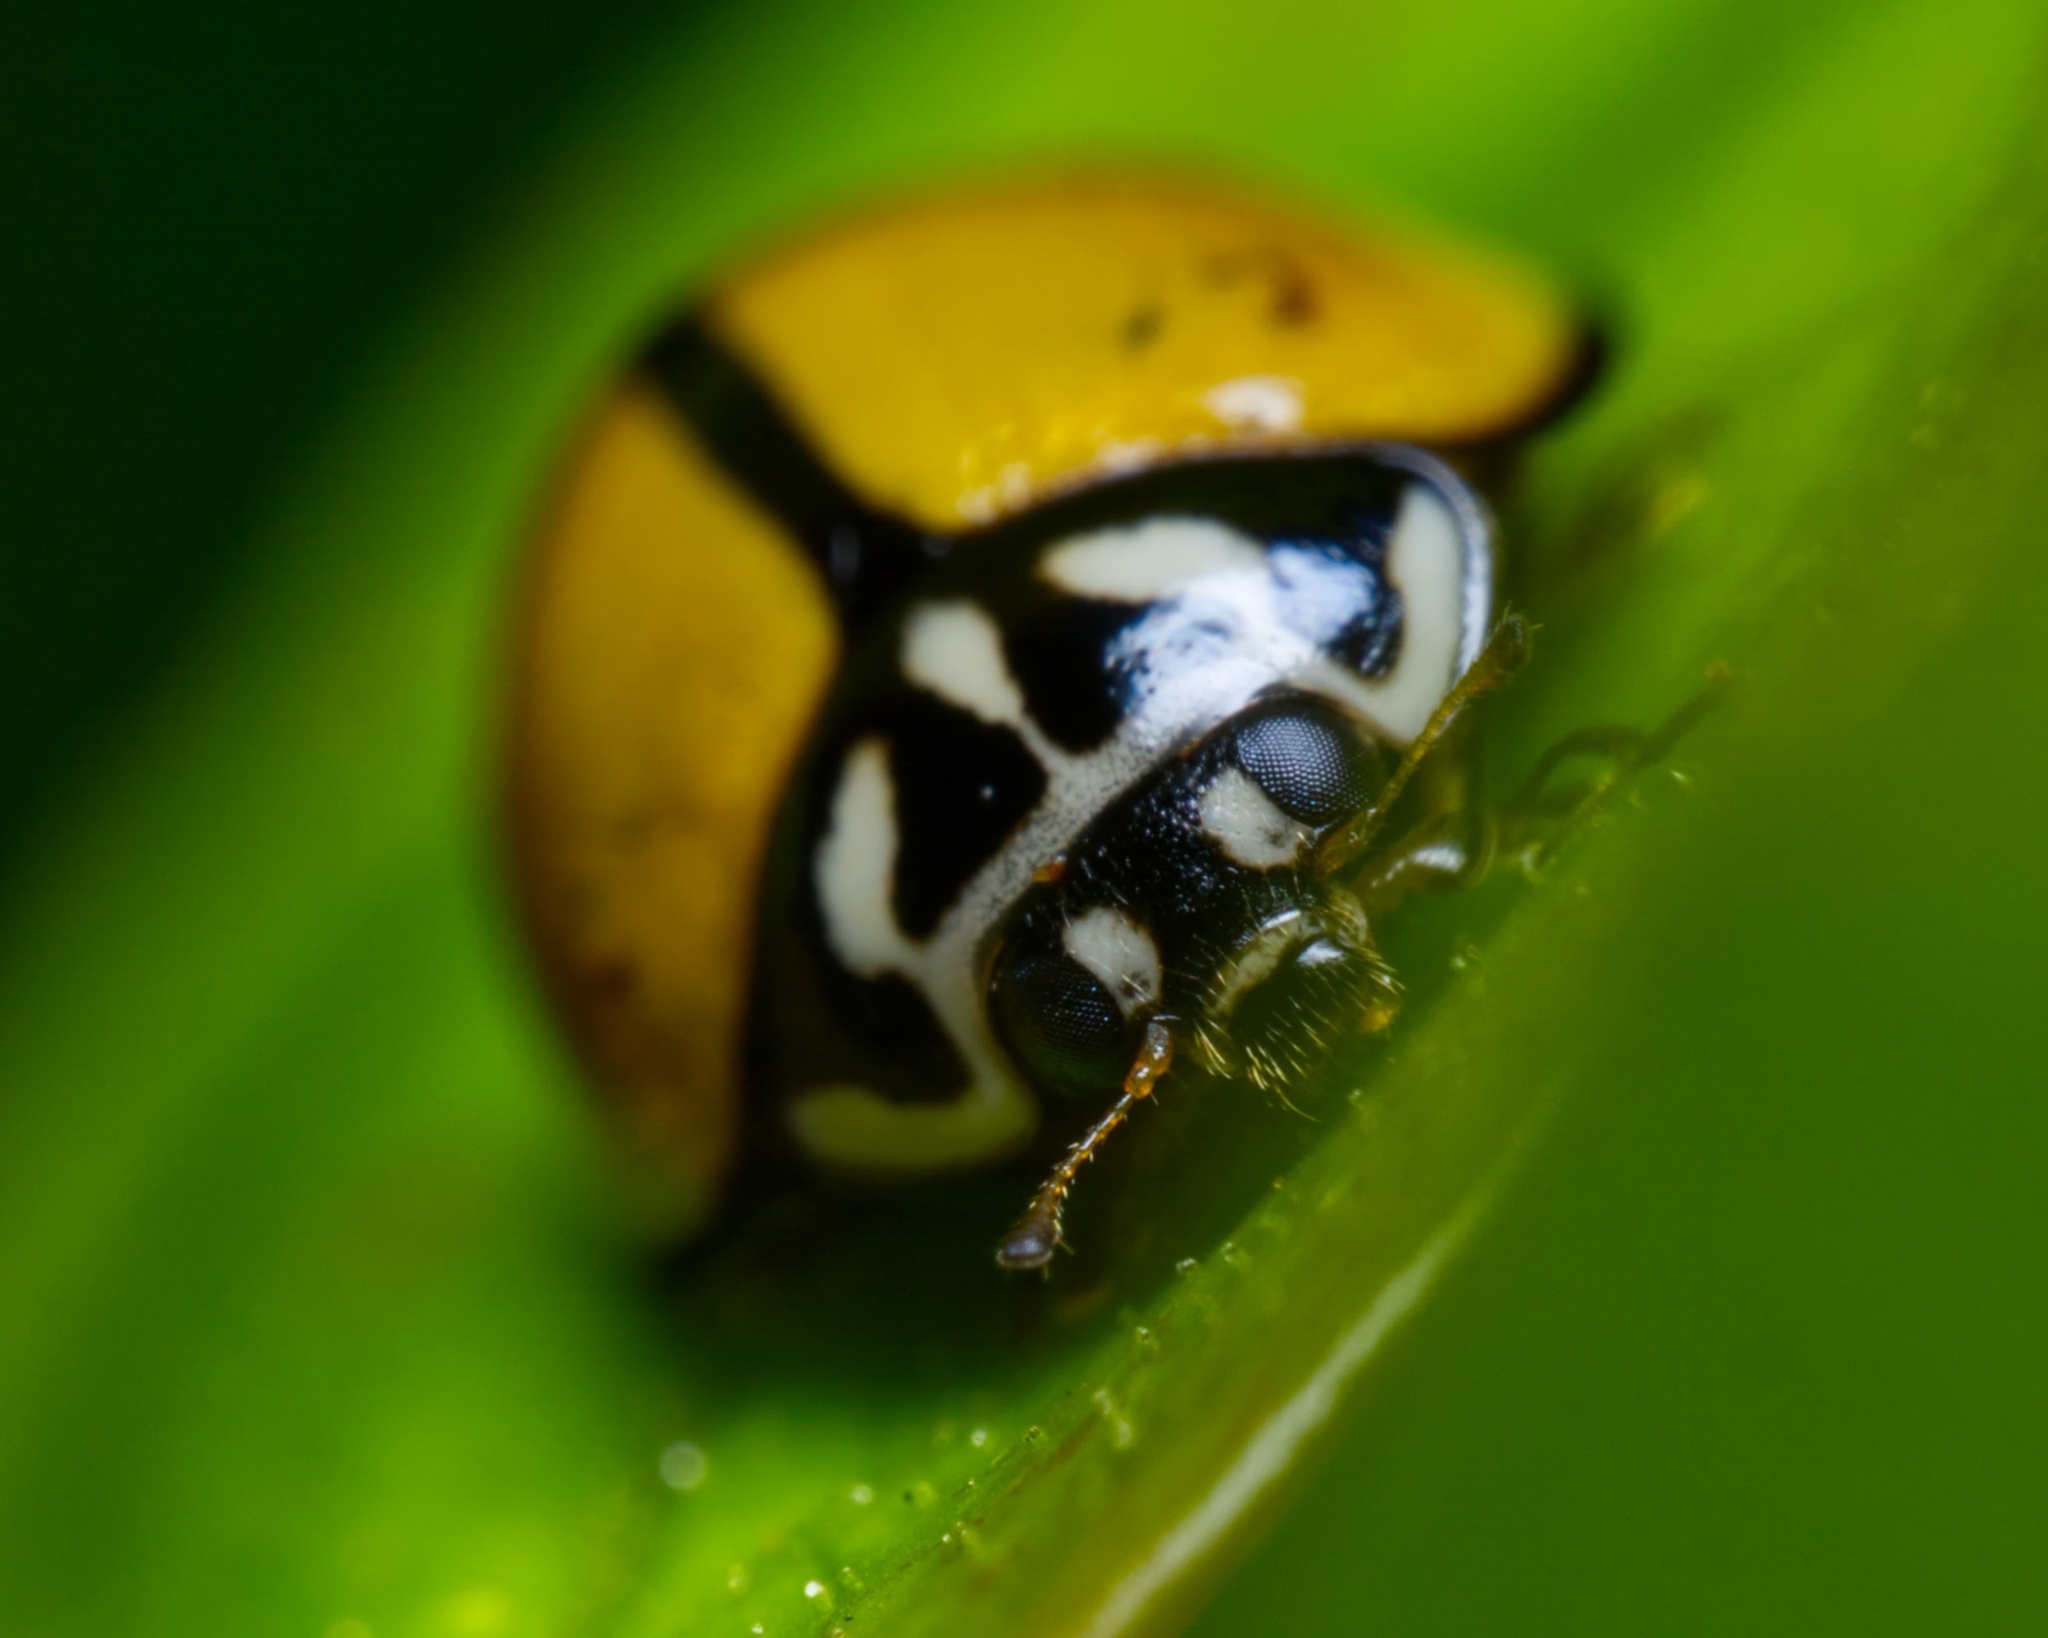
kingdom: Animalia
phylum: Arthropoda
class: Insecta
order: Coleoptera
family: Coccinellidae
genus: Oenopia
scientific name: Oenopia
